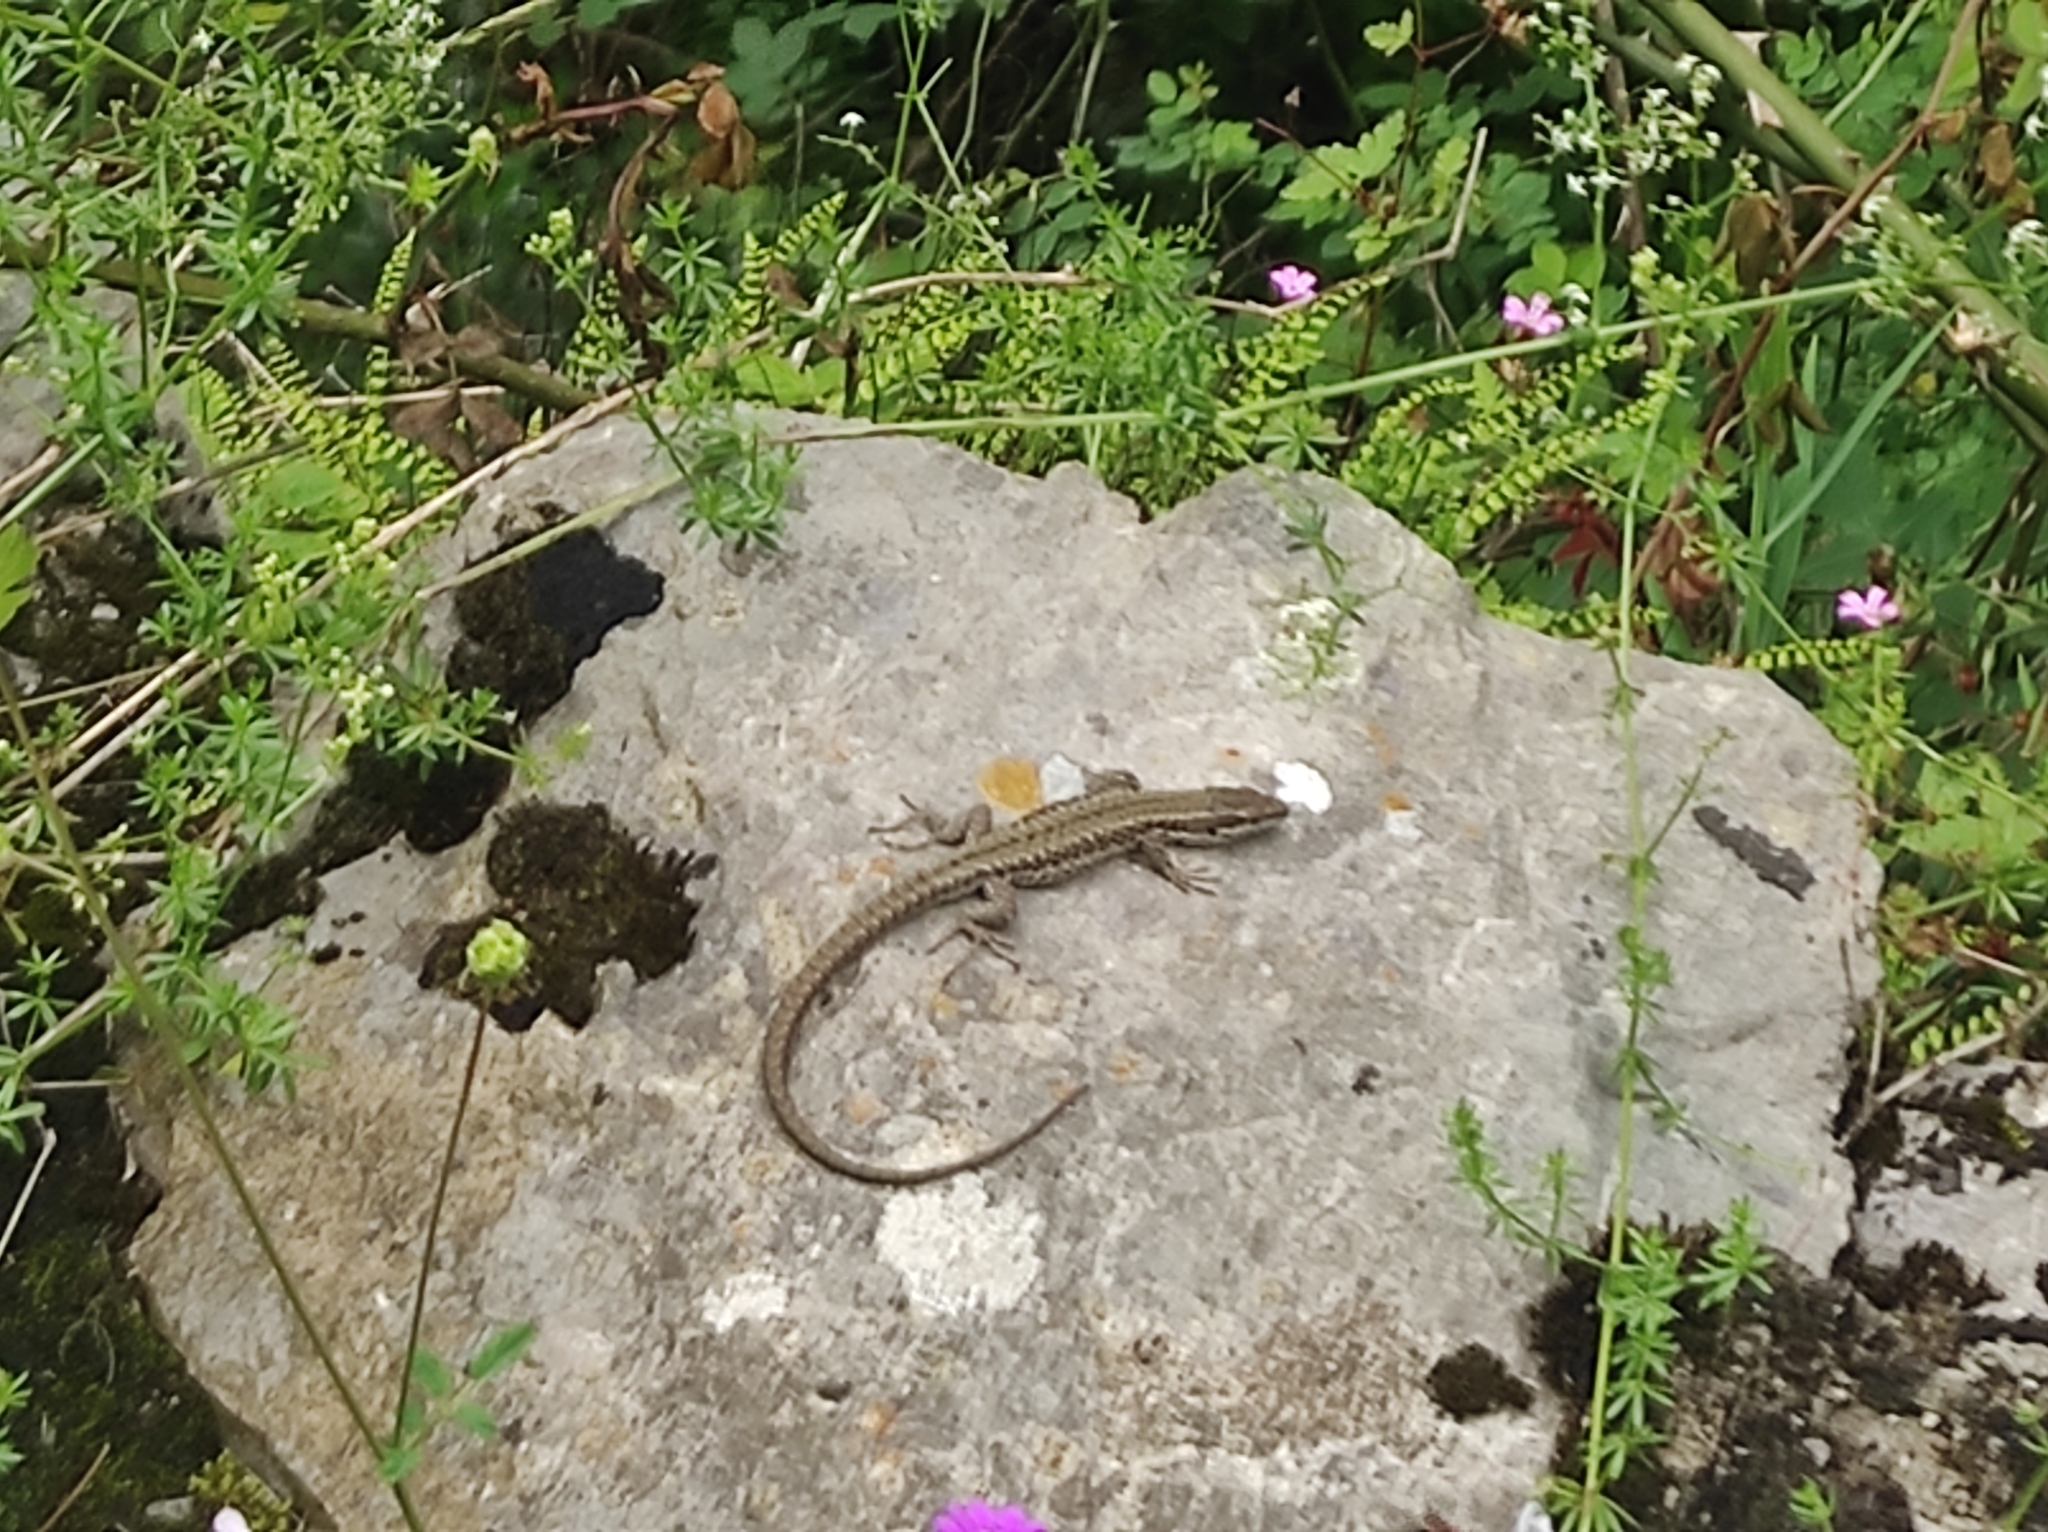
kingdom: Animalia
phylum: Chordata
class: Squamata
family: Lacertidae
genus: Podarcis
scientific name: Podarcis muralis
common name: Common wall lizard
